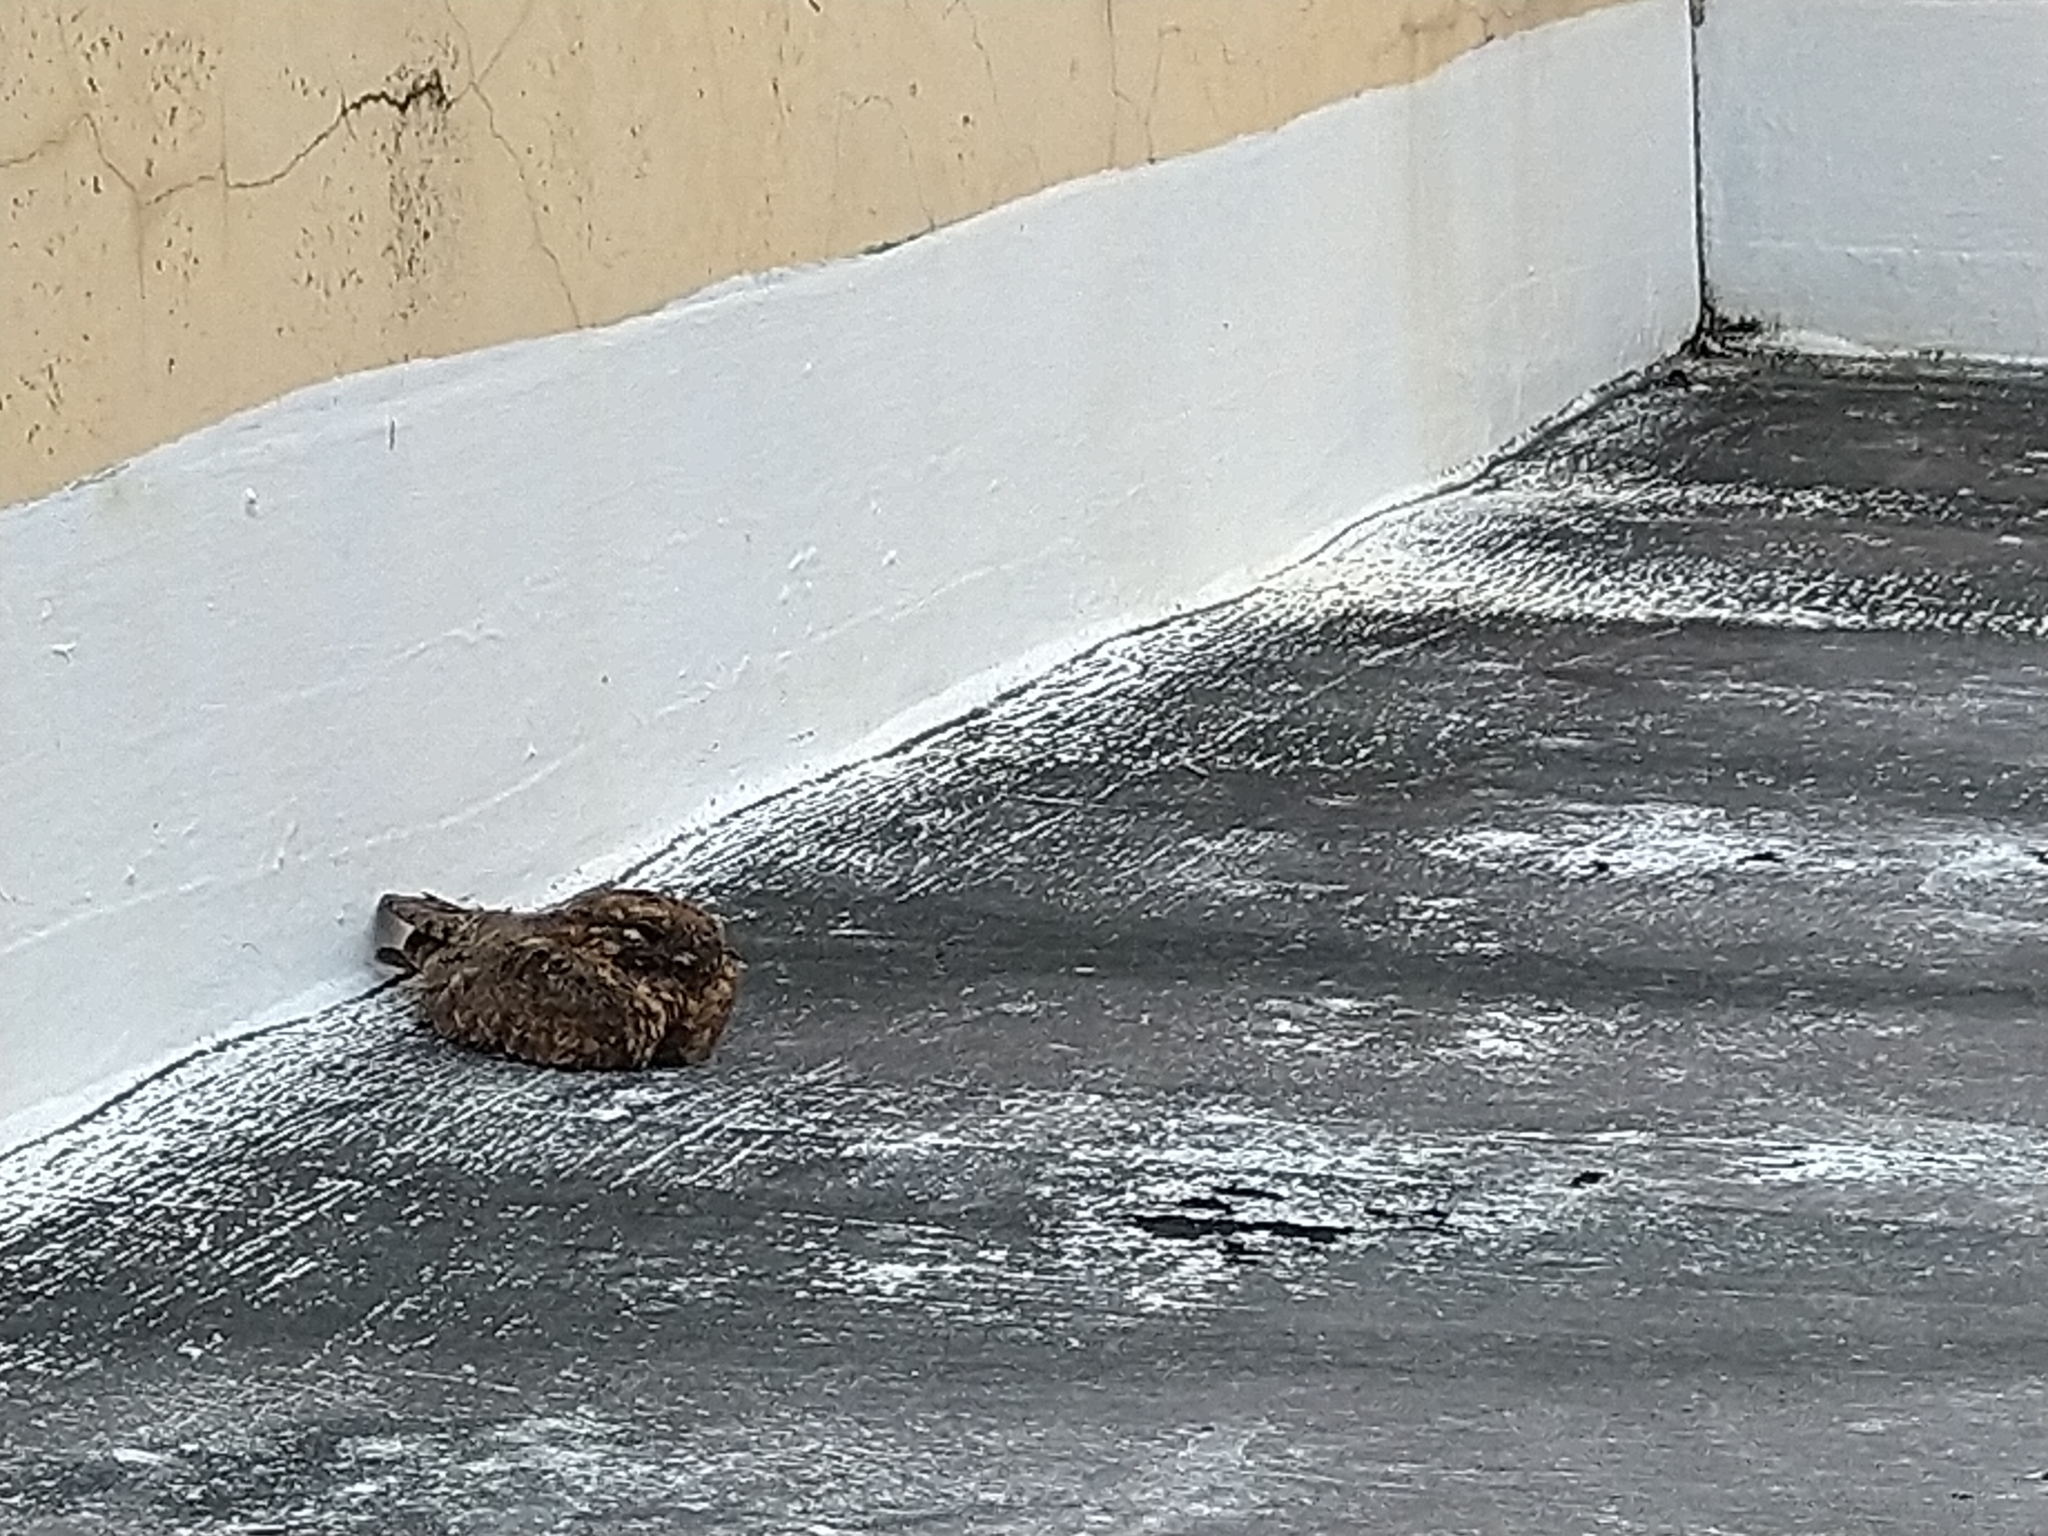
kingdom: Animalia
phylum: Chordata
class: Aves
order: Caprimulgiformes
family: Caprimulgidae
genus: Caprimulgus
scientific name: Caprimulgus affinis
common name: Savanna nightjar
